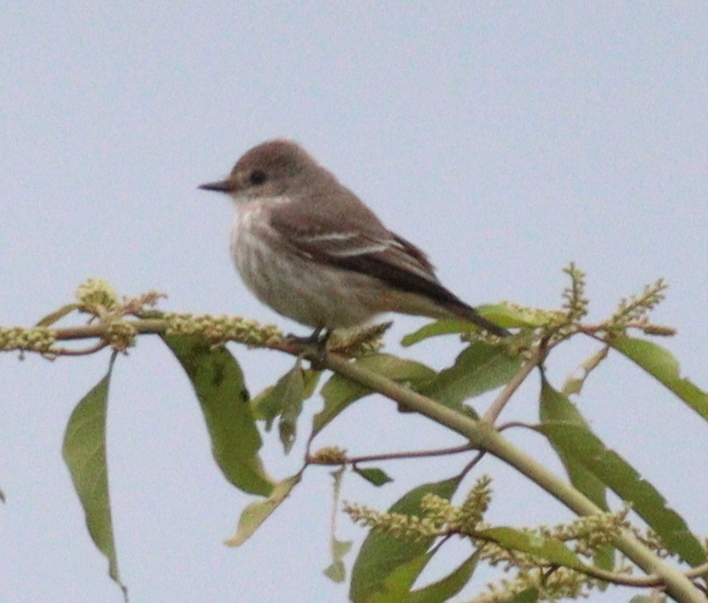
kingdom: Animalia
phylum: Chordata
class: Aves
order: Passeriformes
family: Tyrannidae
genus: Pyrocephalus
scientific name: Pyrocephalus rubinus
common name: Vermilion flycatcher
